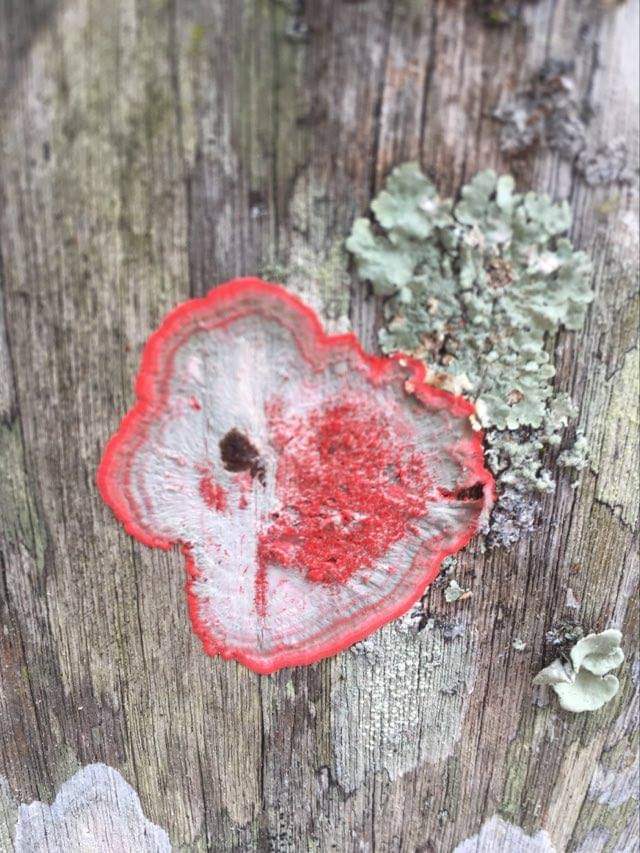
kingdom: Fungi
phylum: Ascomycota
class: Arthoniomycetes
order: Arthoniales
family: Arthoniaceae
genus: Herpothallon
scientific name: Herpothallon rubrocinctum
